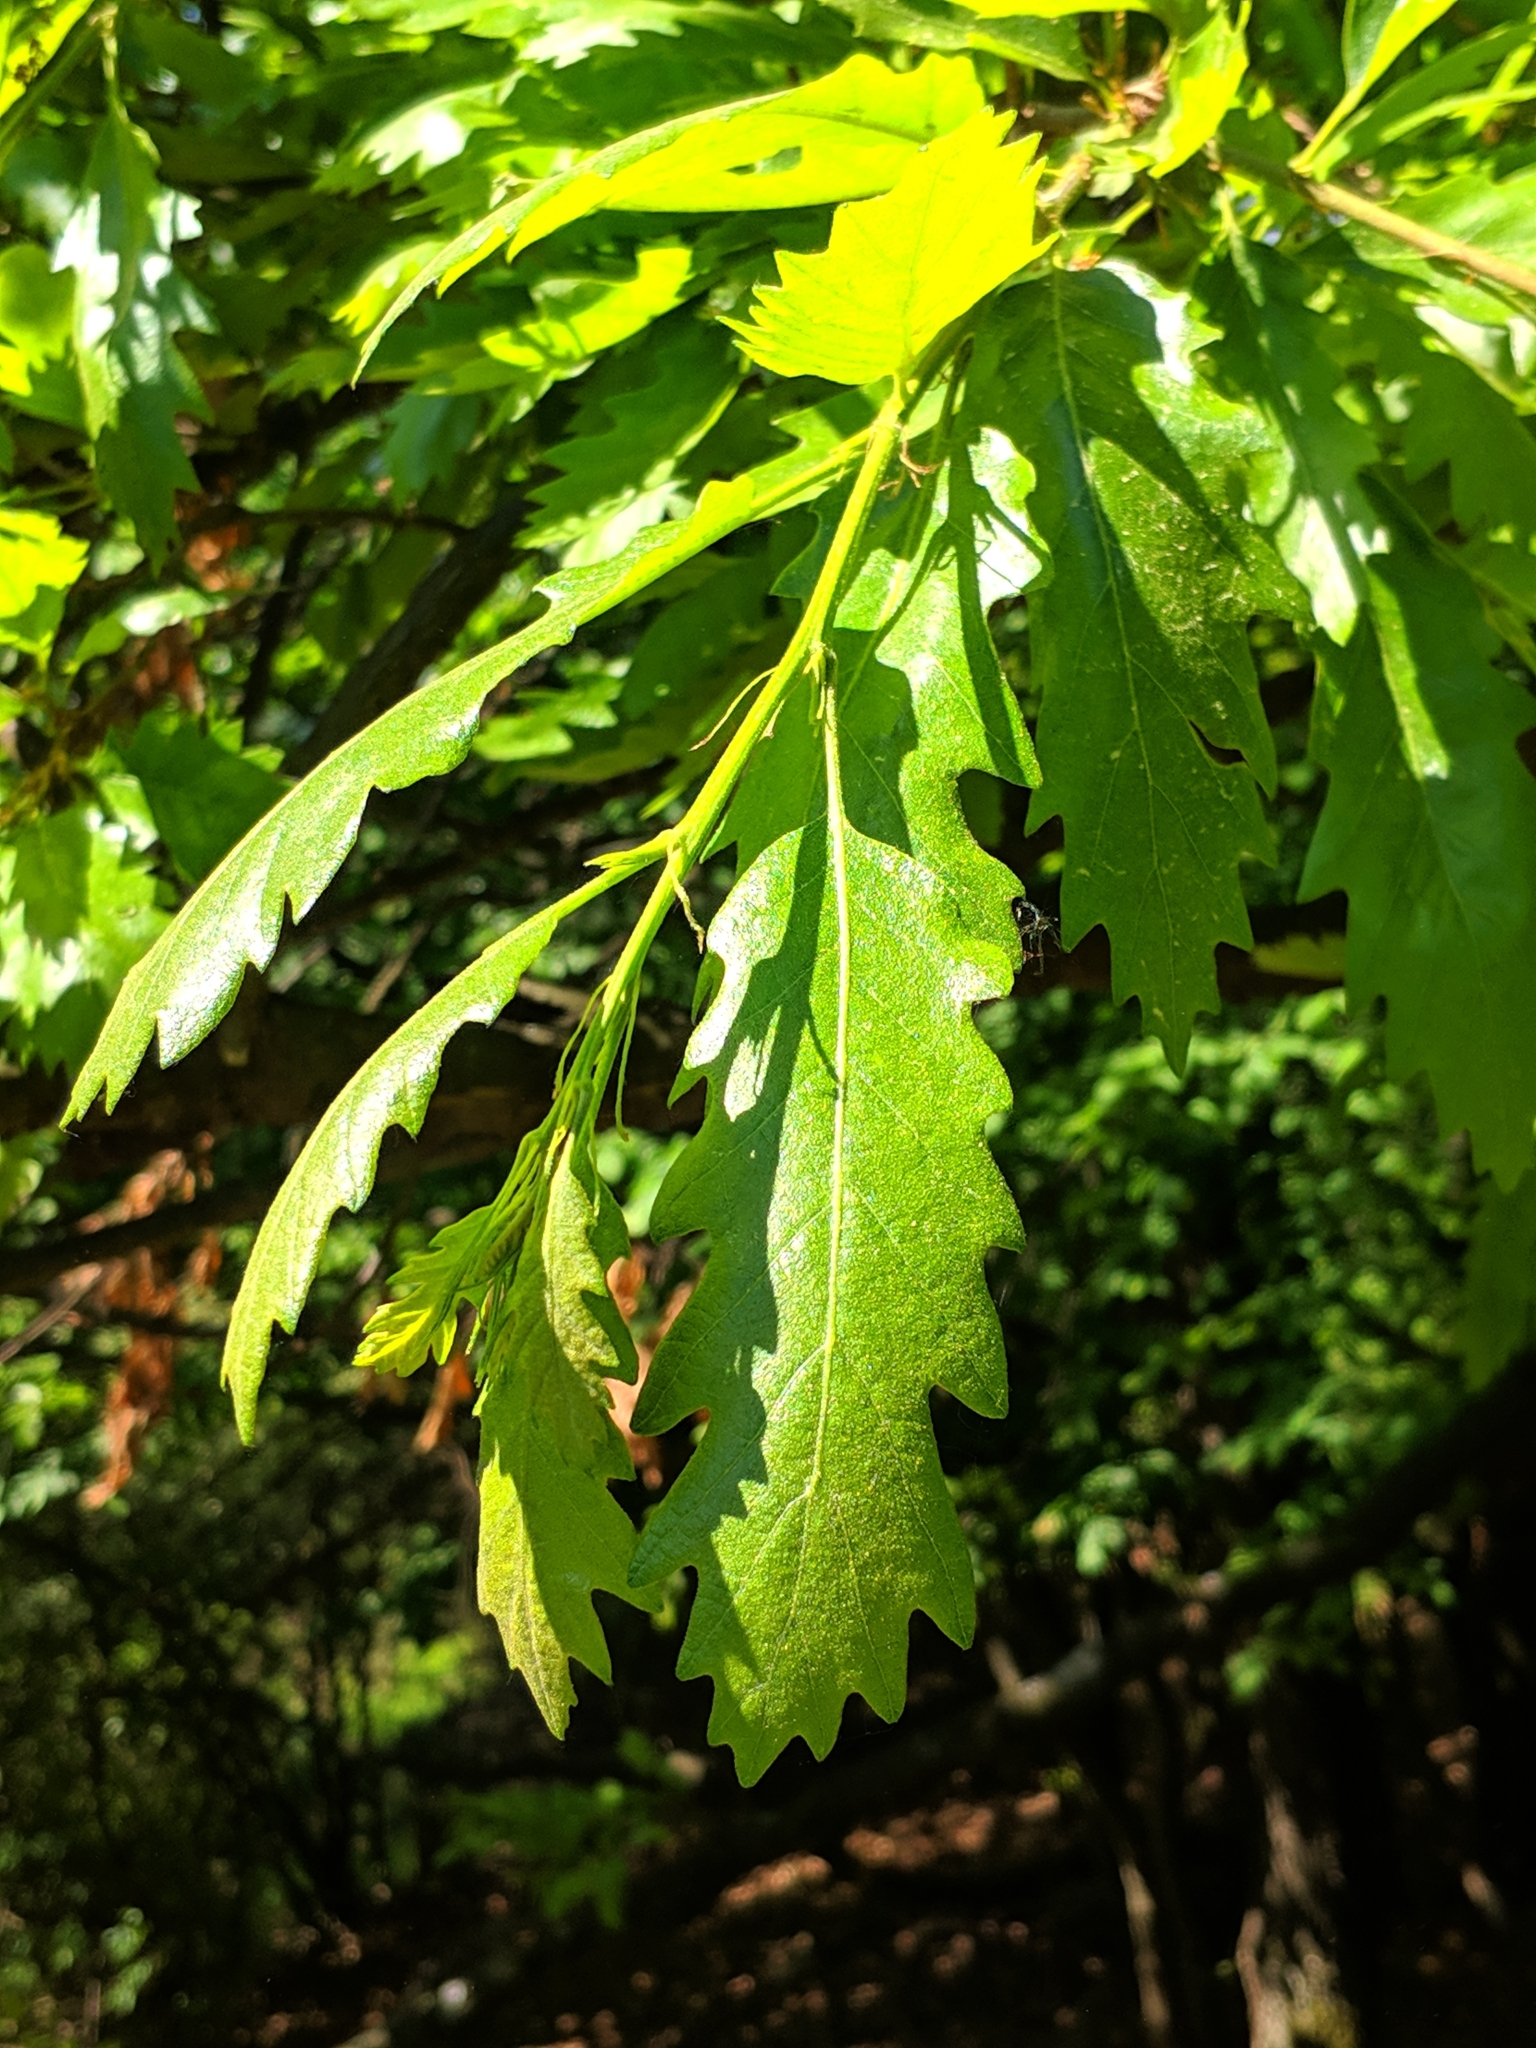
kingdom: Plantae
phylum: Tracheophyta
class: Magnoliopsida
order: Fagales
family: Fagaceae
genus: Quercus
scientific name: Quercus cerris
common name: Turkey oak
